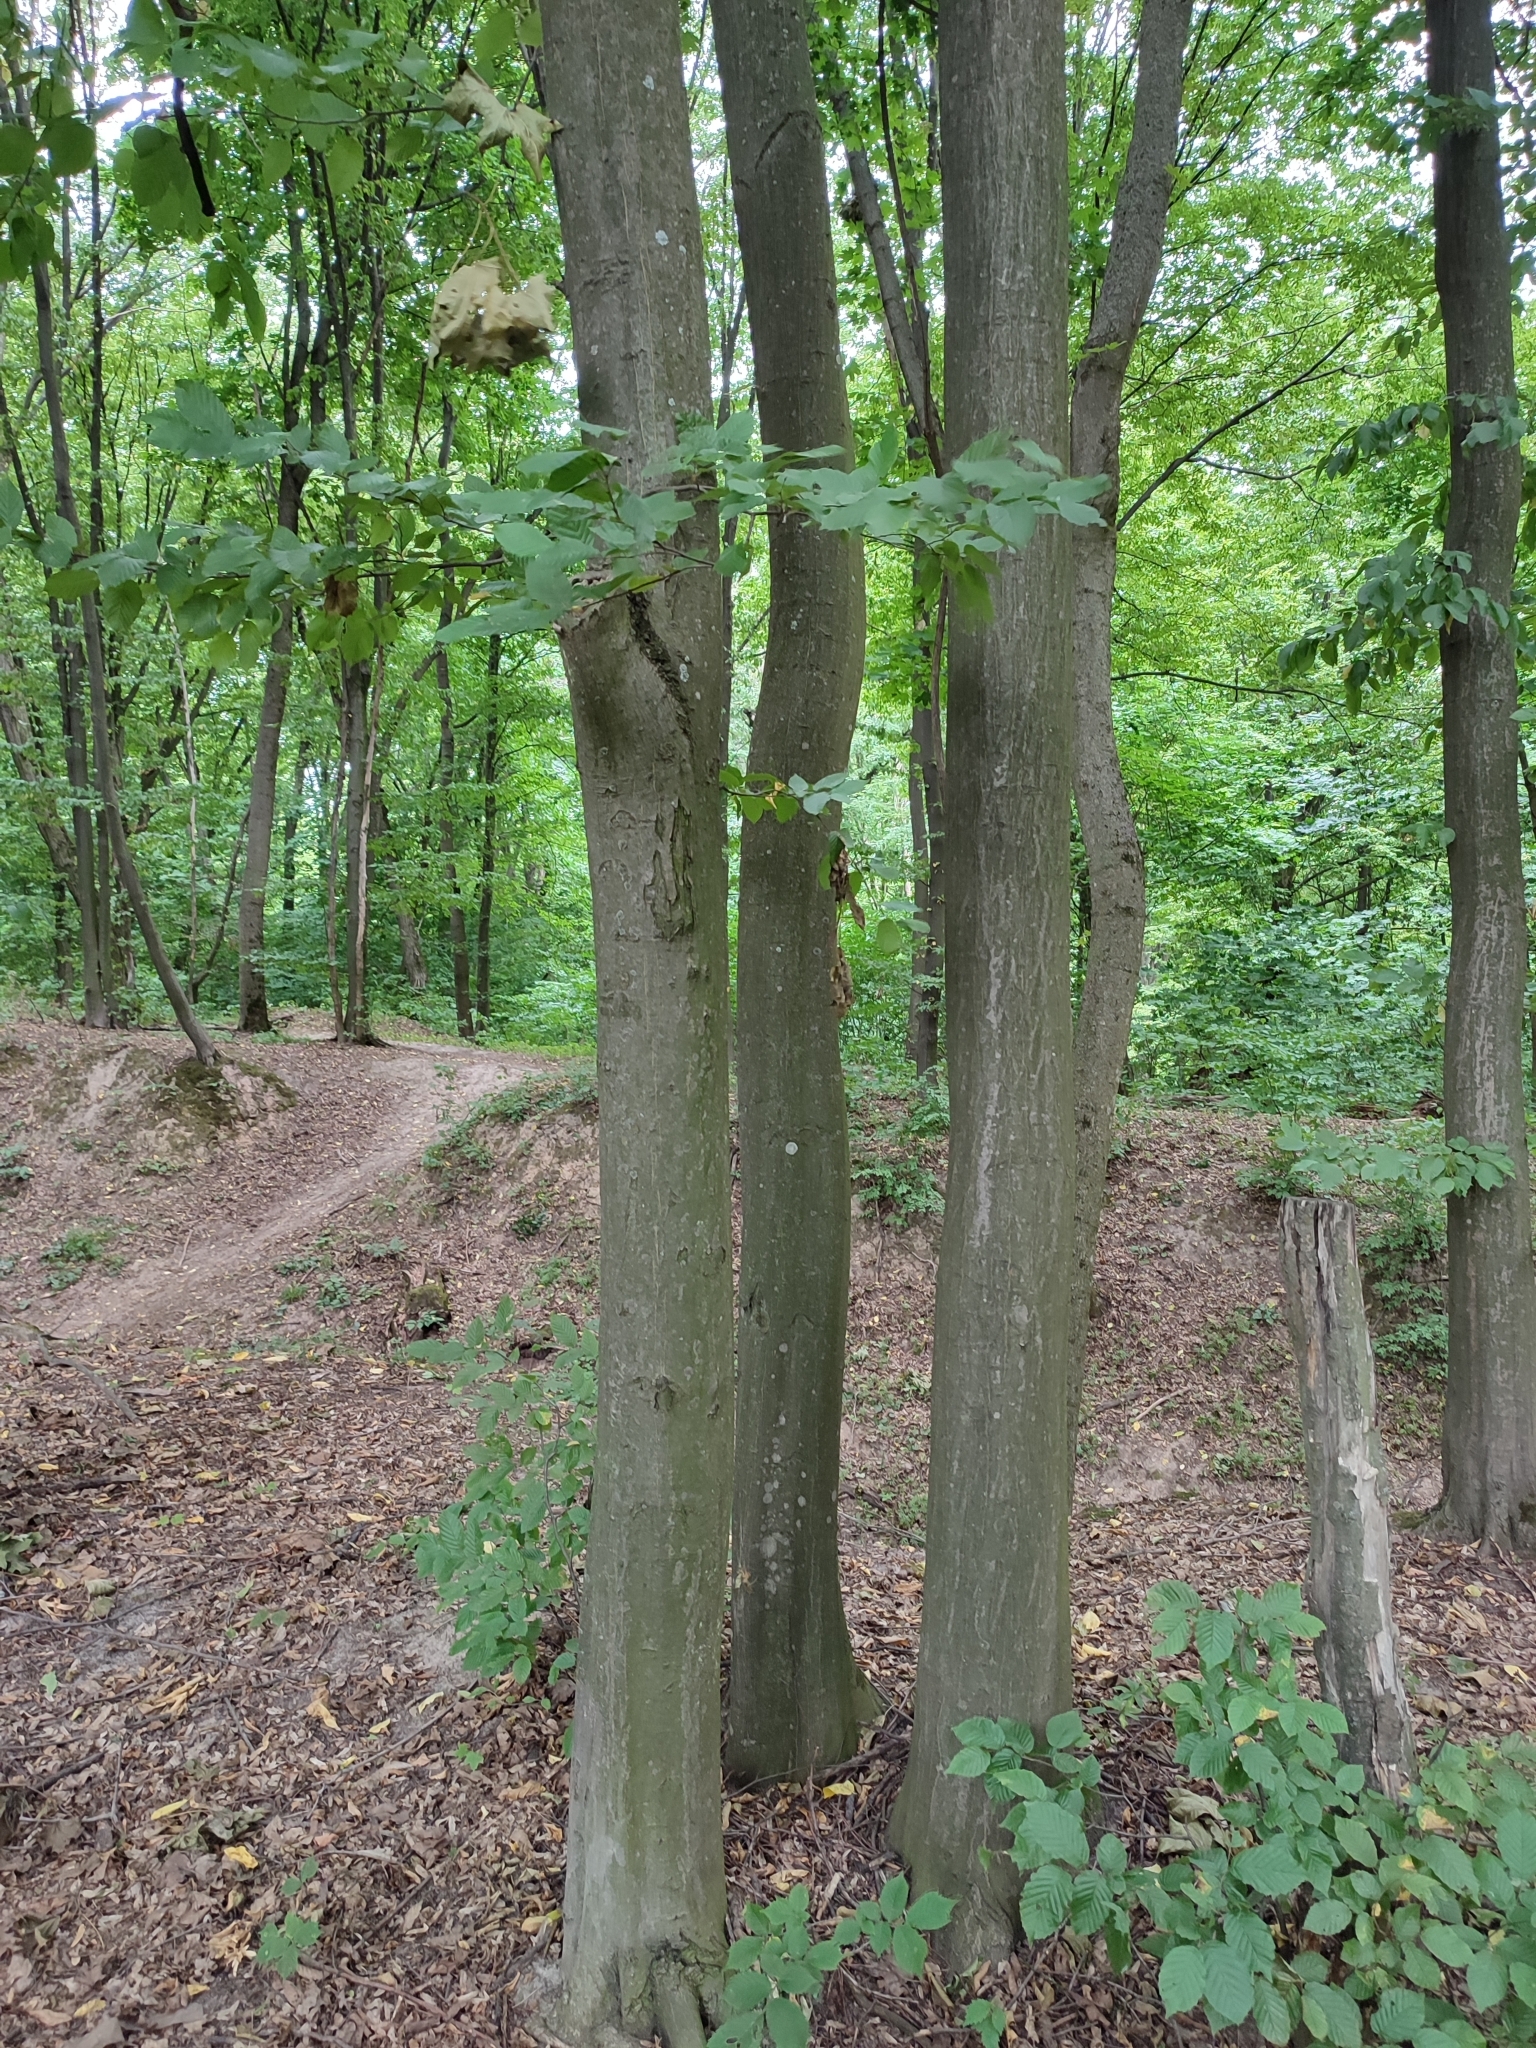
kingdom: Plantae
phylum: Tracheophyta
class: Magnoliopsida
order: Fagales
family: Betulaceae
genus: Carpinus
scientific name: Carpinus betulus
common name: Hornbeam
